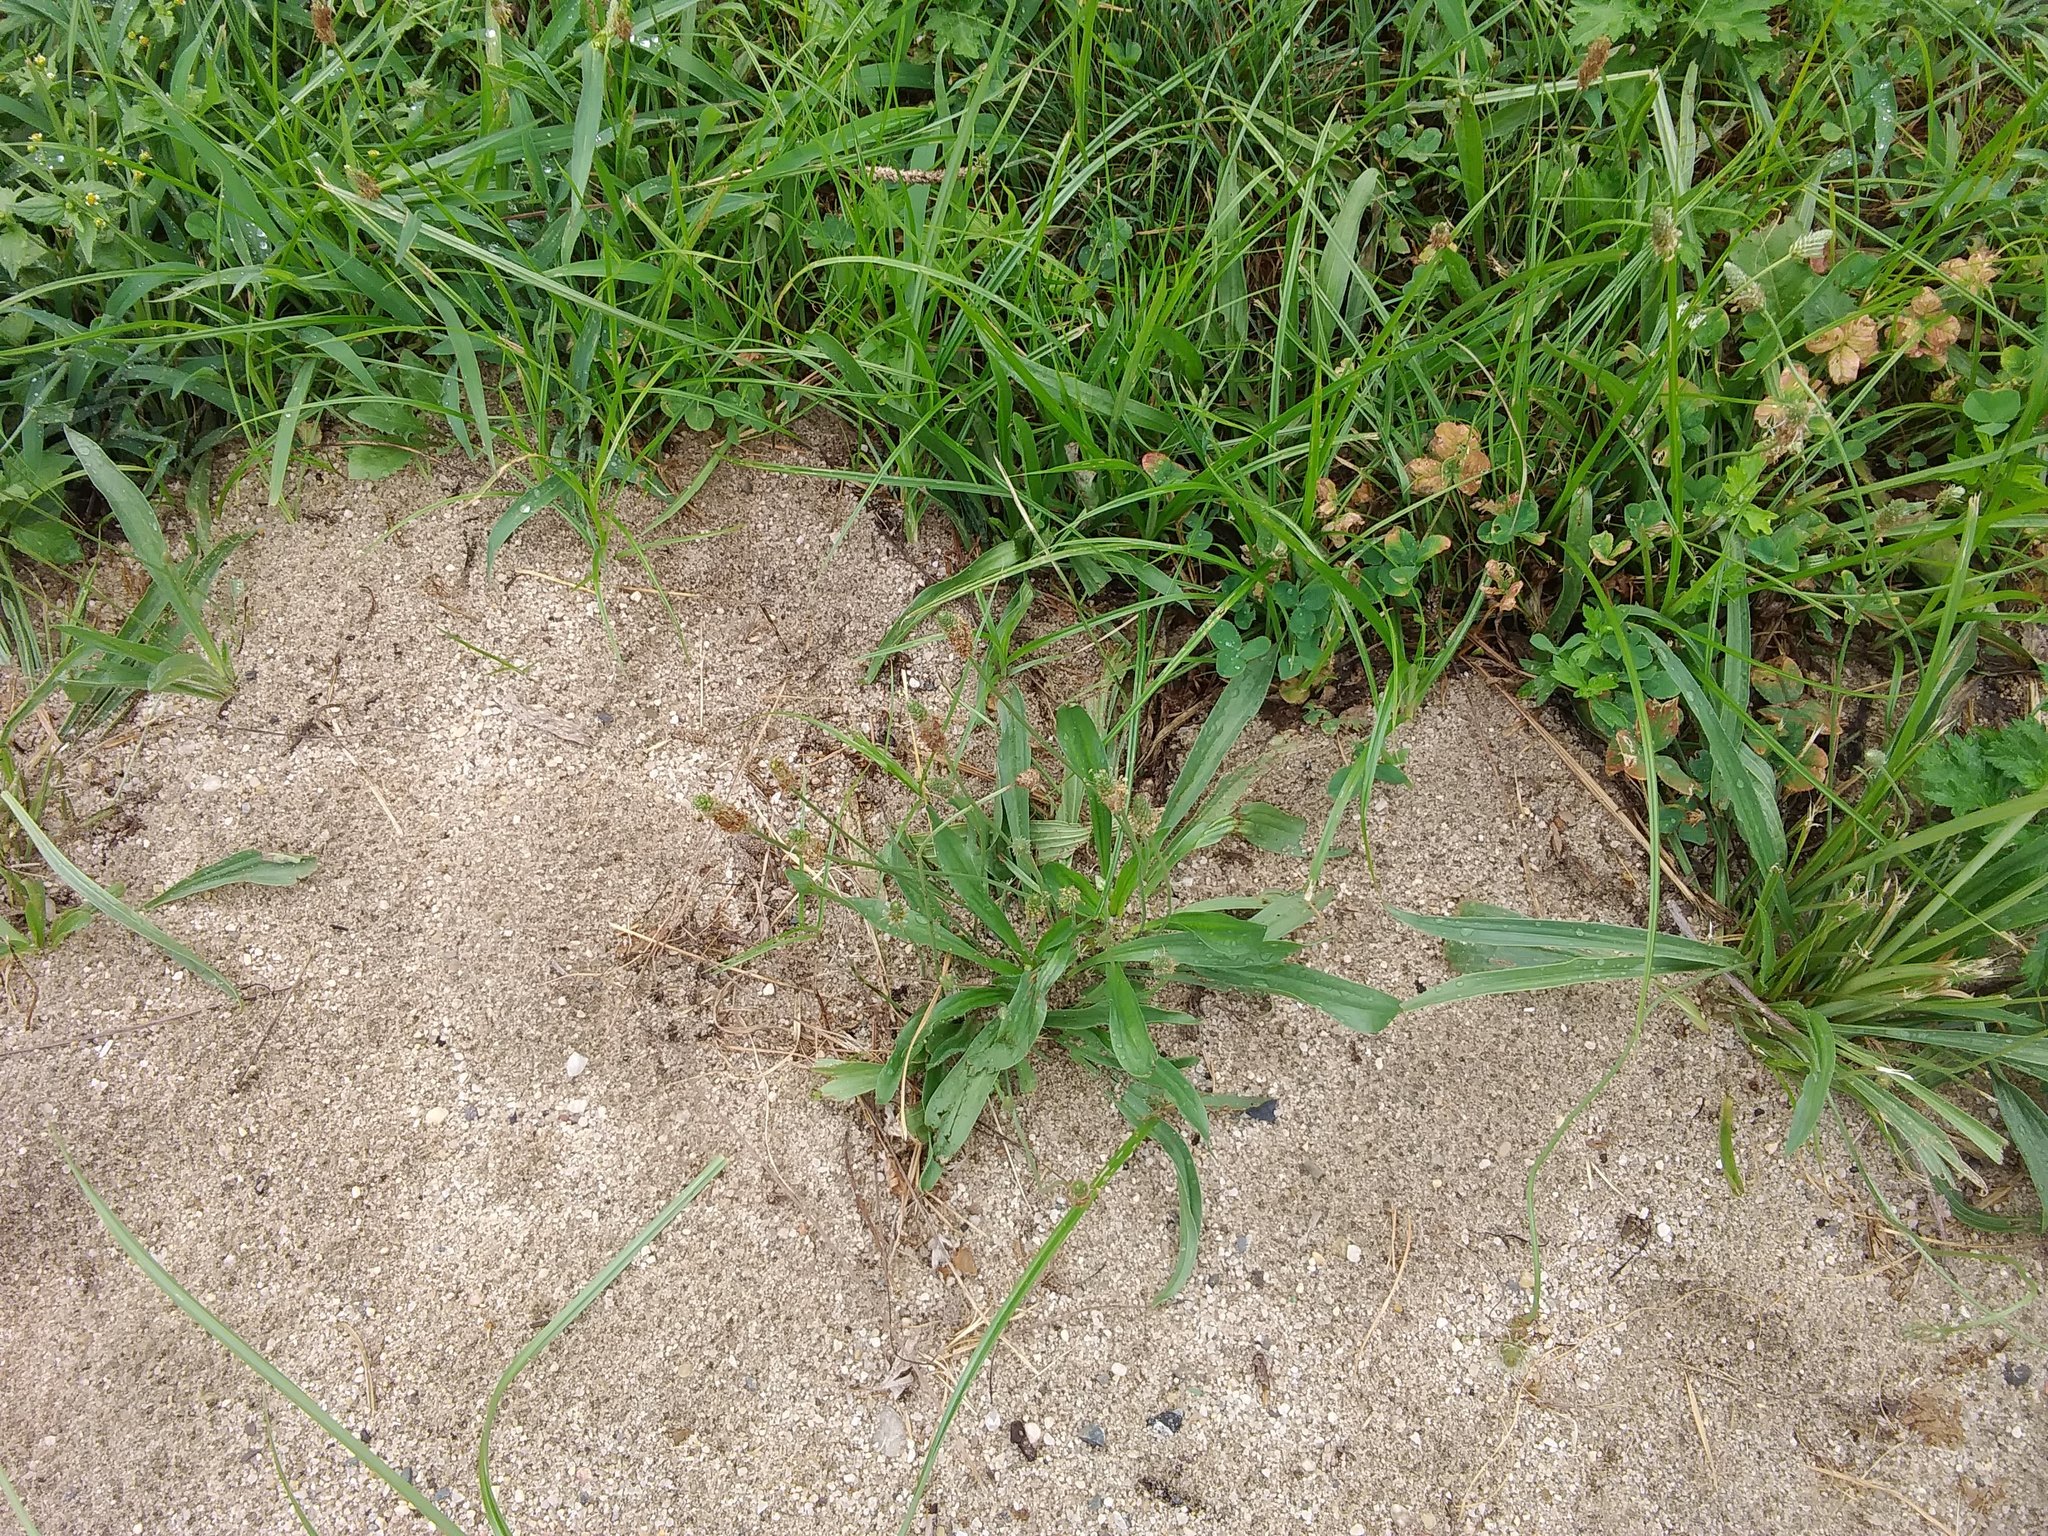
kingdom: Plantae
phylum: Tracheophyta
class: Magnoliopsida
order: Lamiales
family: Plantaginaceae
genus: Plantago
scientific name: Plantago lanceolata
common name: Ribwort plantain
